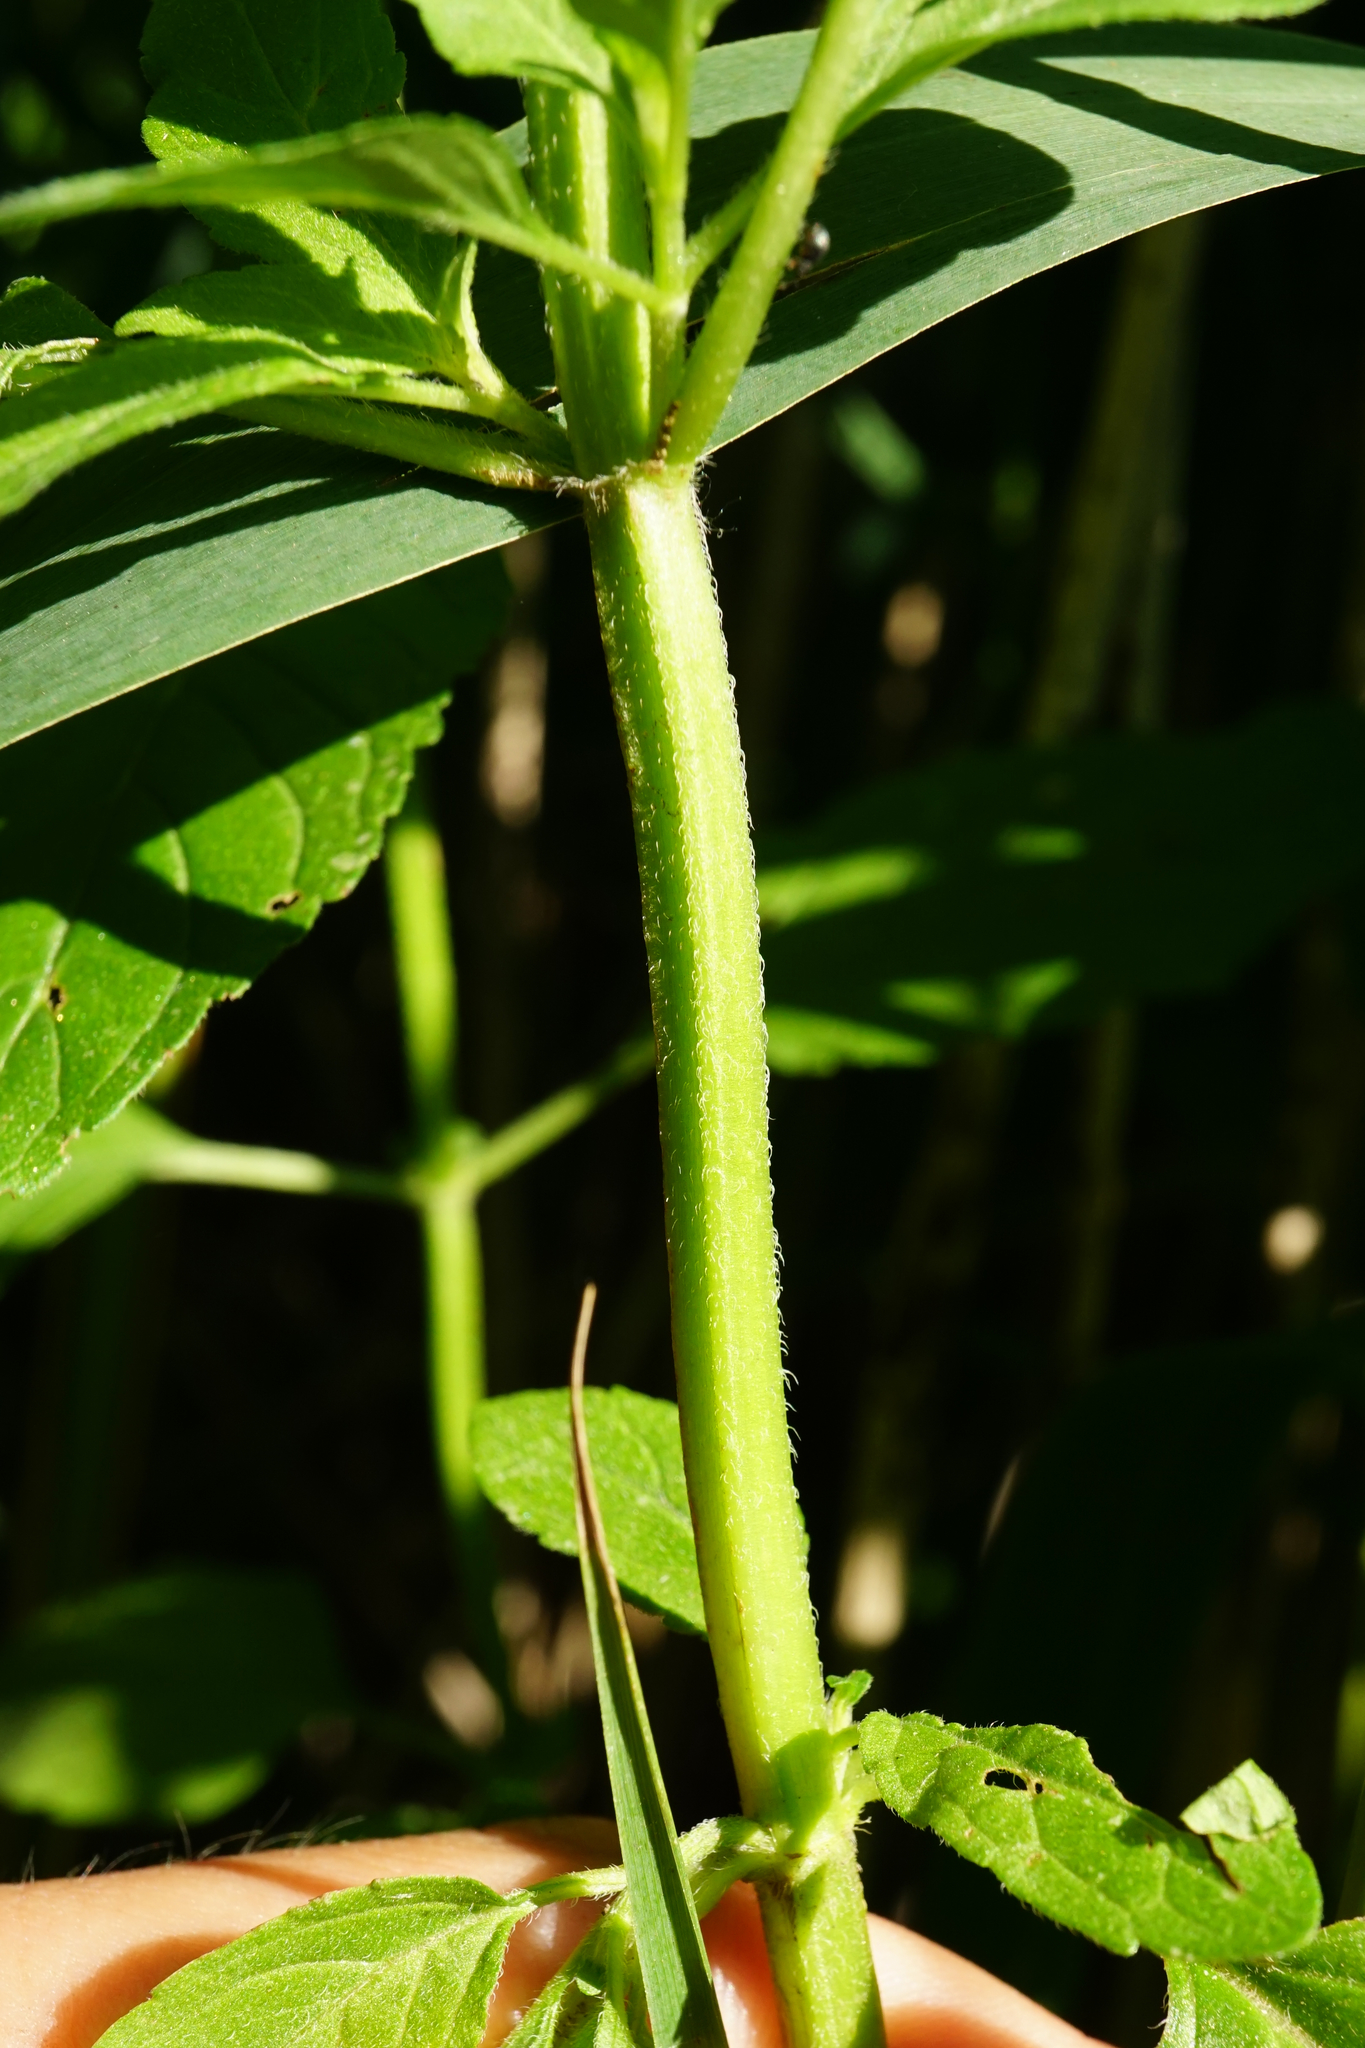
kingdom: Plantae
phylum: Tracheophyta
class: Magnoliopsida
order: Lamiales
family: Lamiaceae
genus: Mentha
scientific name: Mentha aquatica
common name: Water mint
